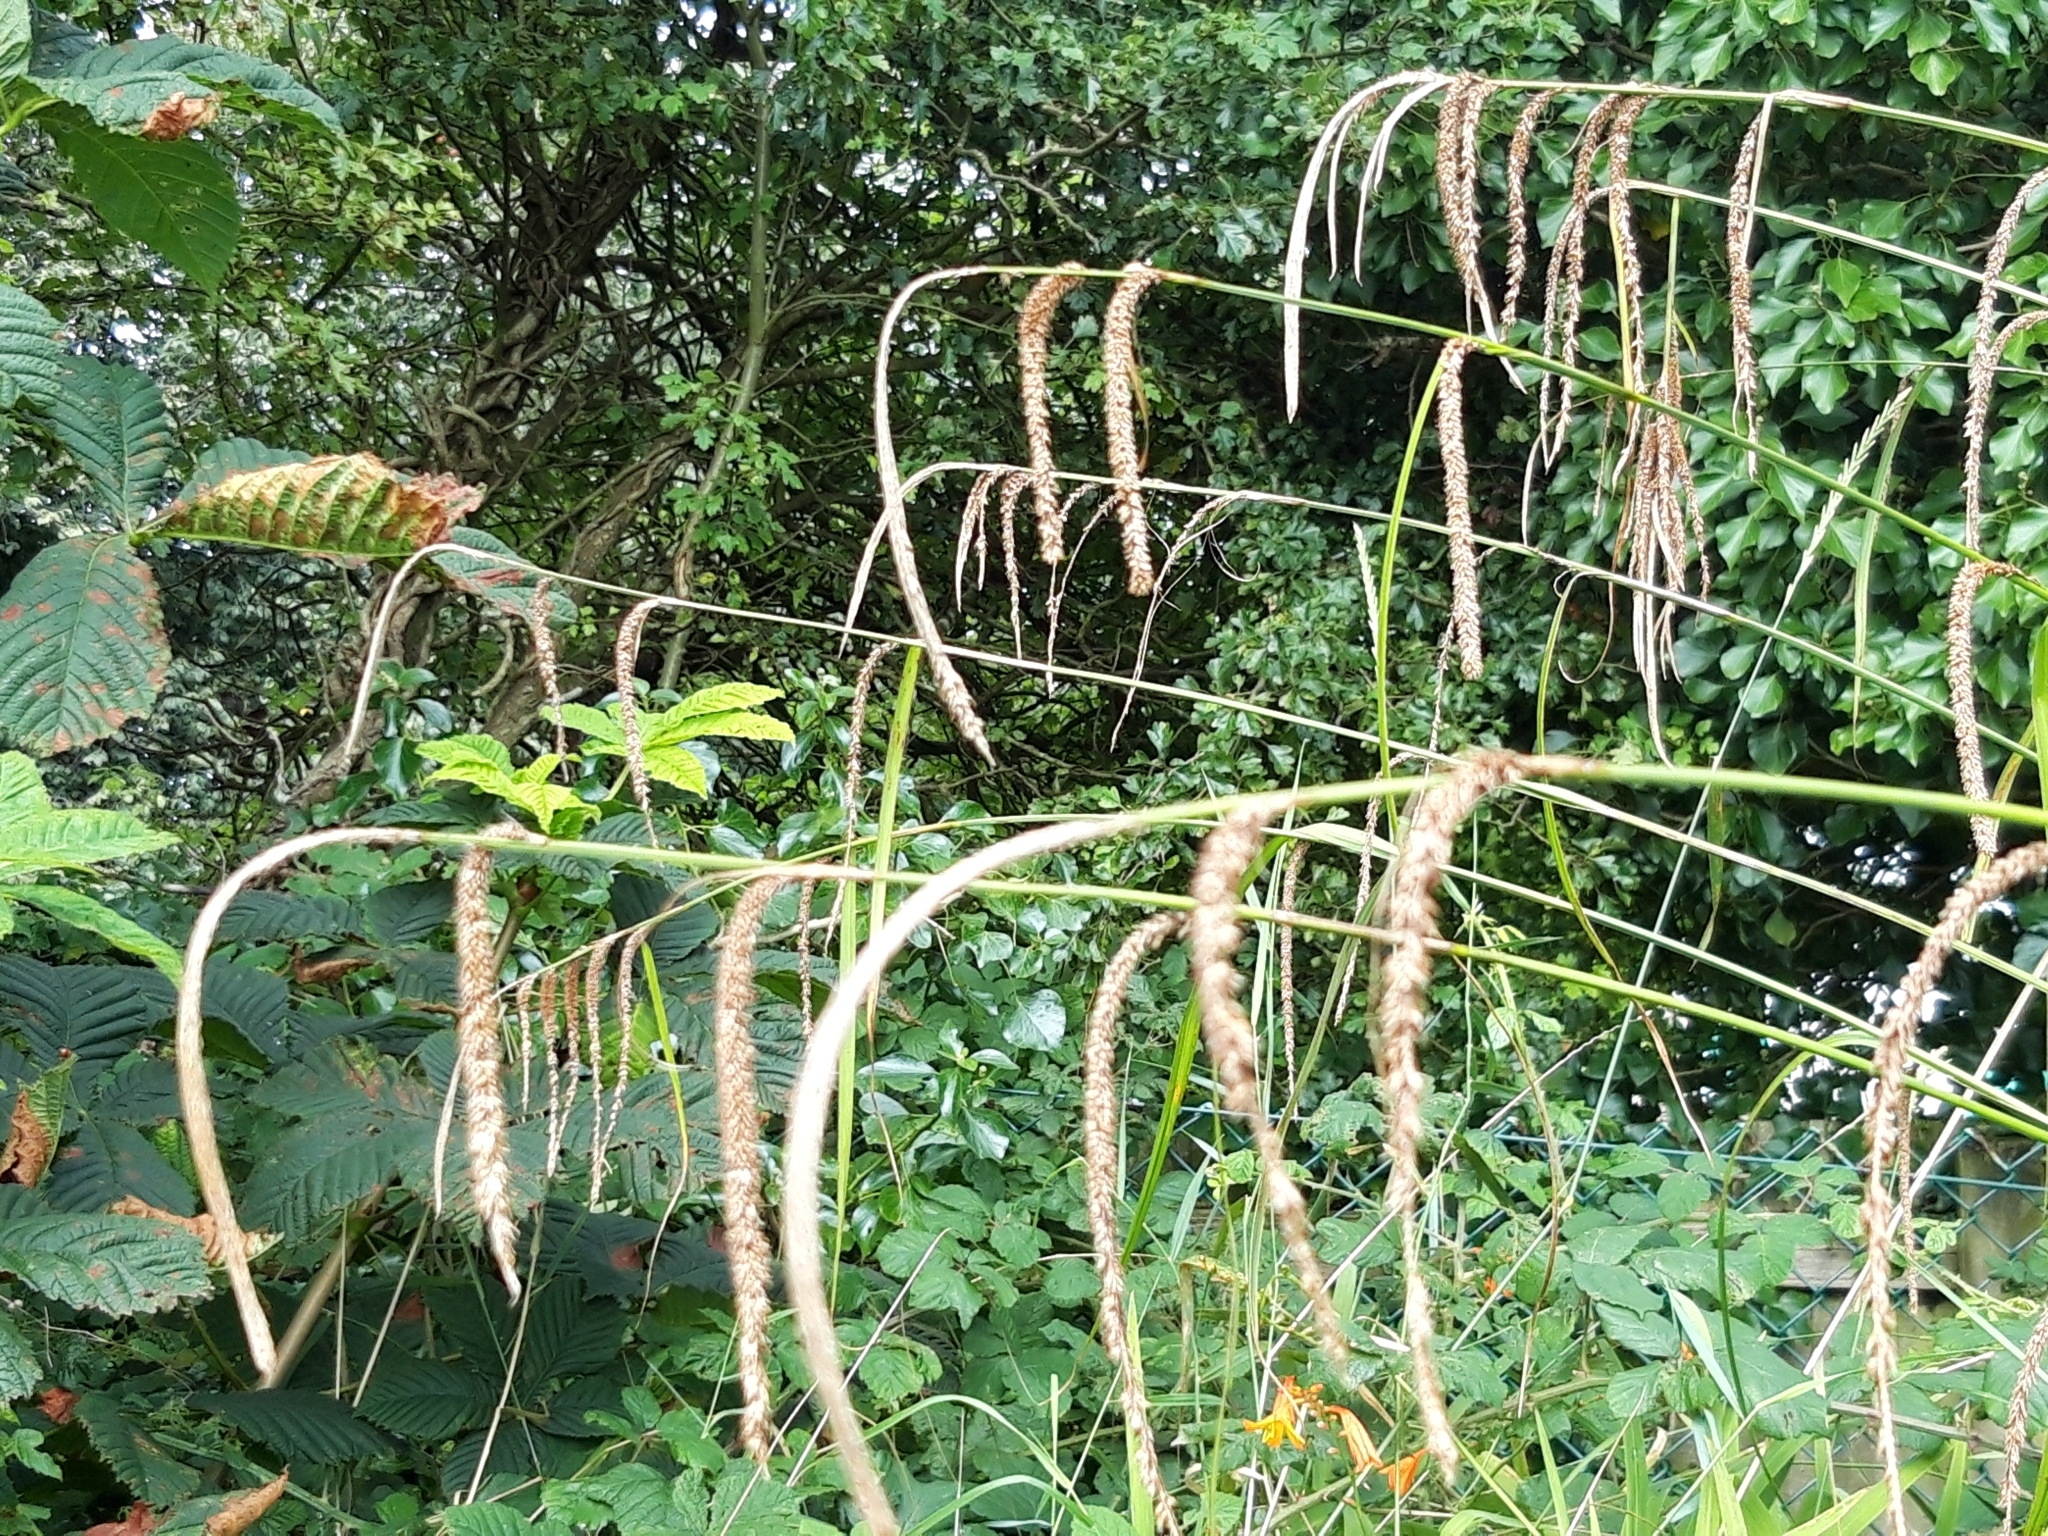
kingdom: Plantae
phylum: Tracheophyta
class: Liliopsida
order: Poales
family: Cyperaceae
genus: Carex
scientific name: Carex pendula
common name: Pendulous sedge
